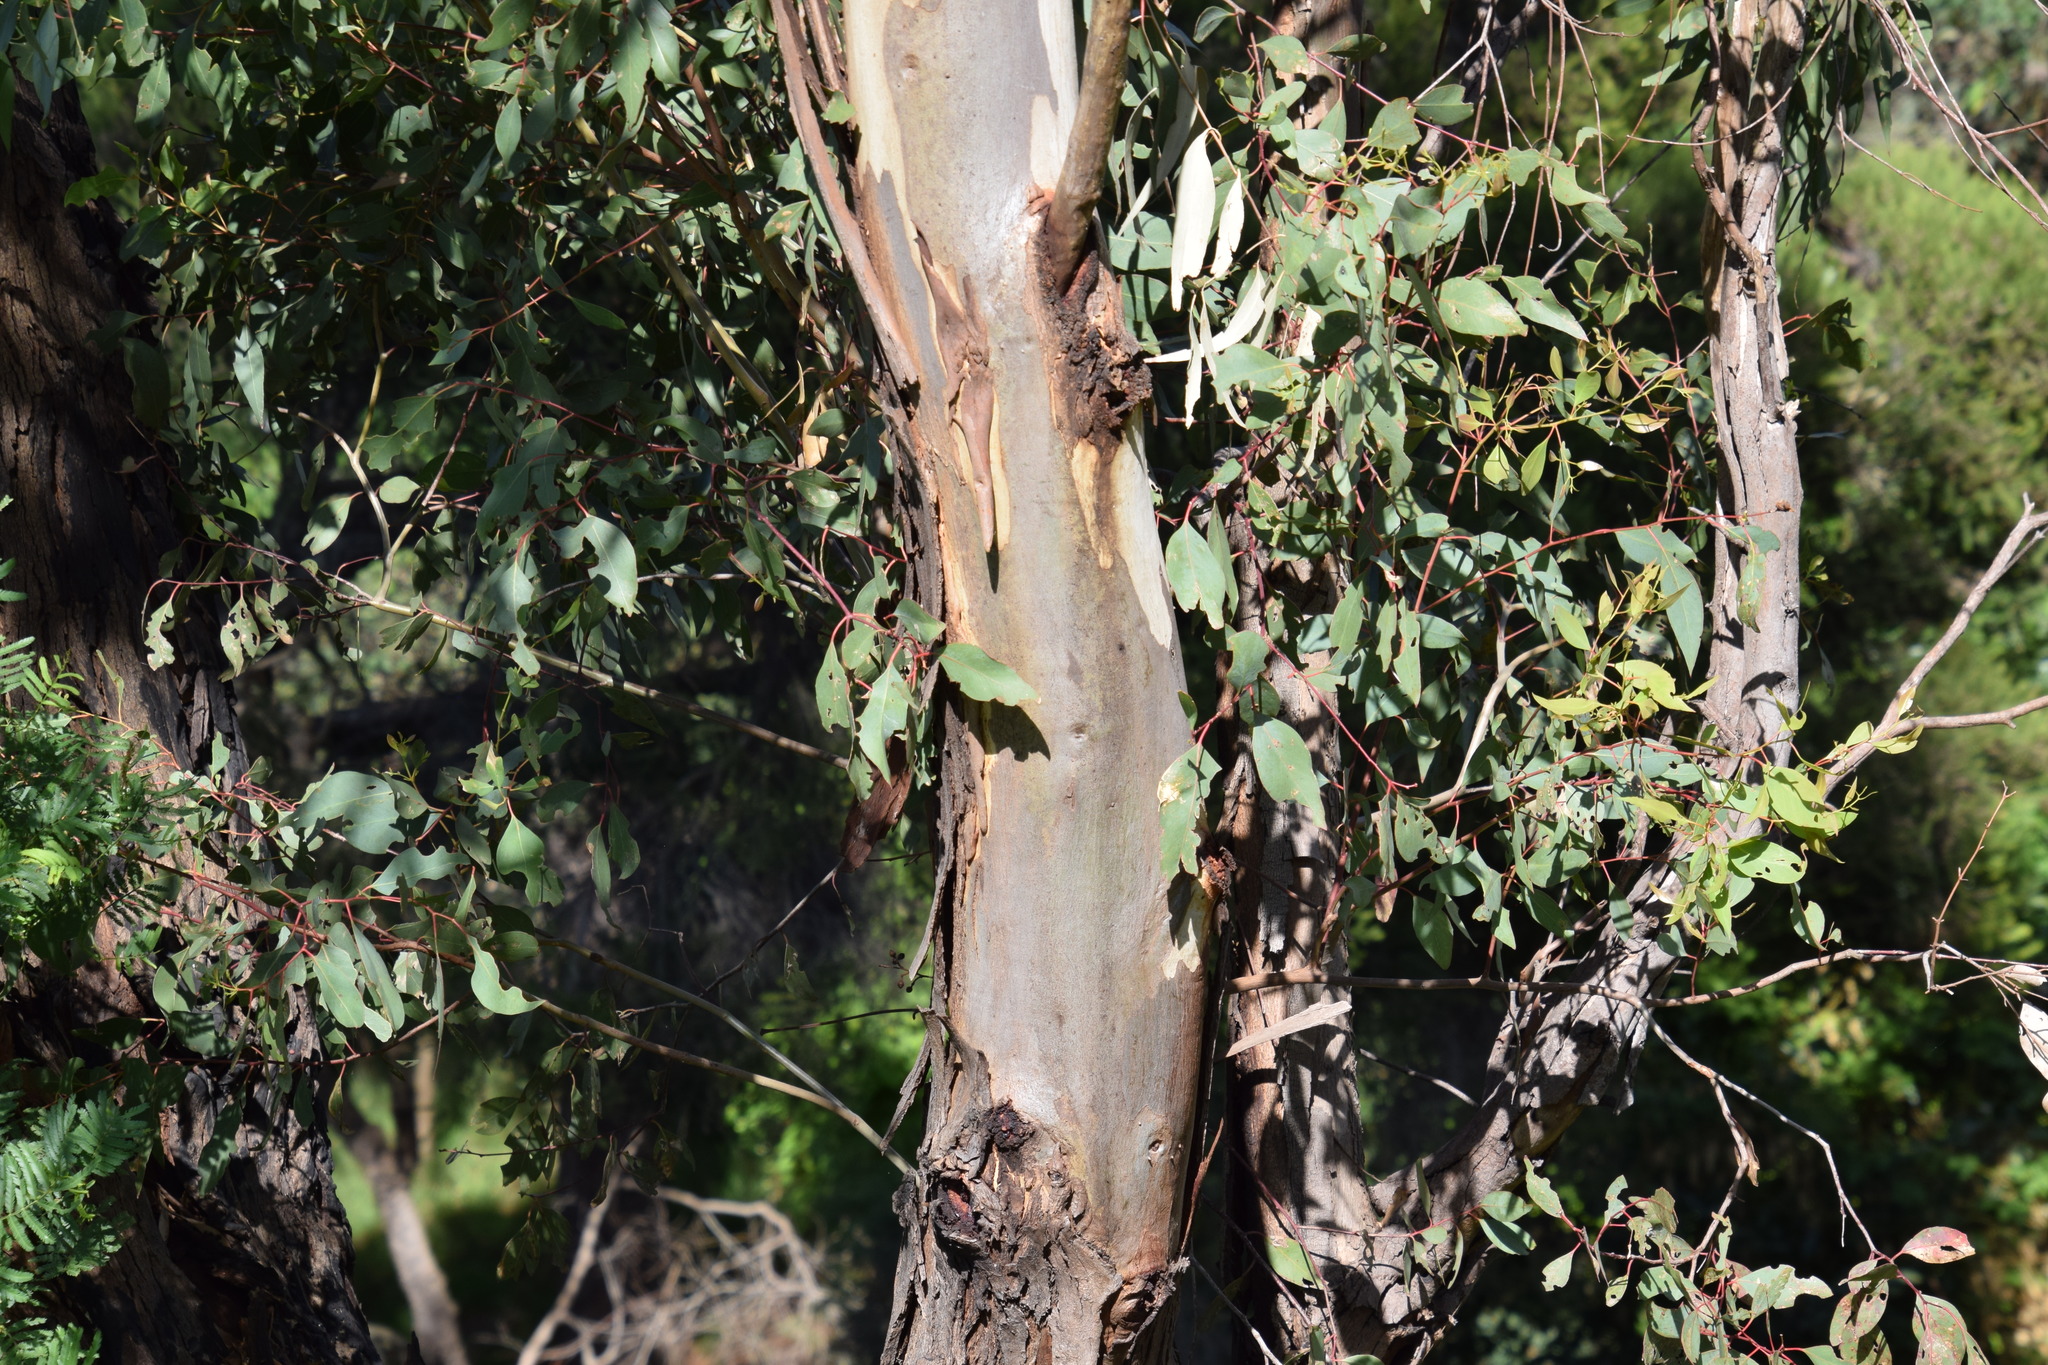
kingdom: Plantae
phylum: Tracheophyta
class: Magnoliopsida
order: Myrtales
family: Myrtaceae
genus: Eucalyptus
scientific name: Eucalyptus tereticornis
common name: Forest redgum
